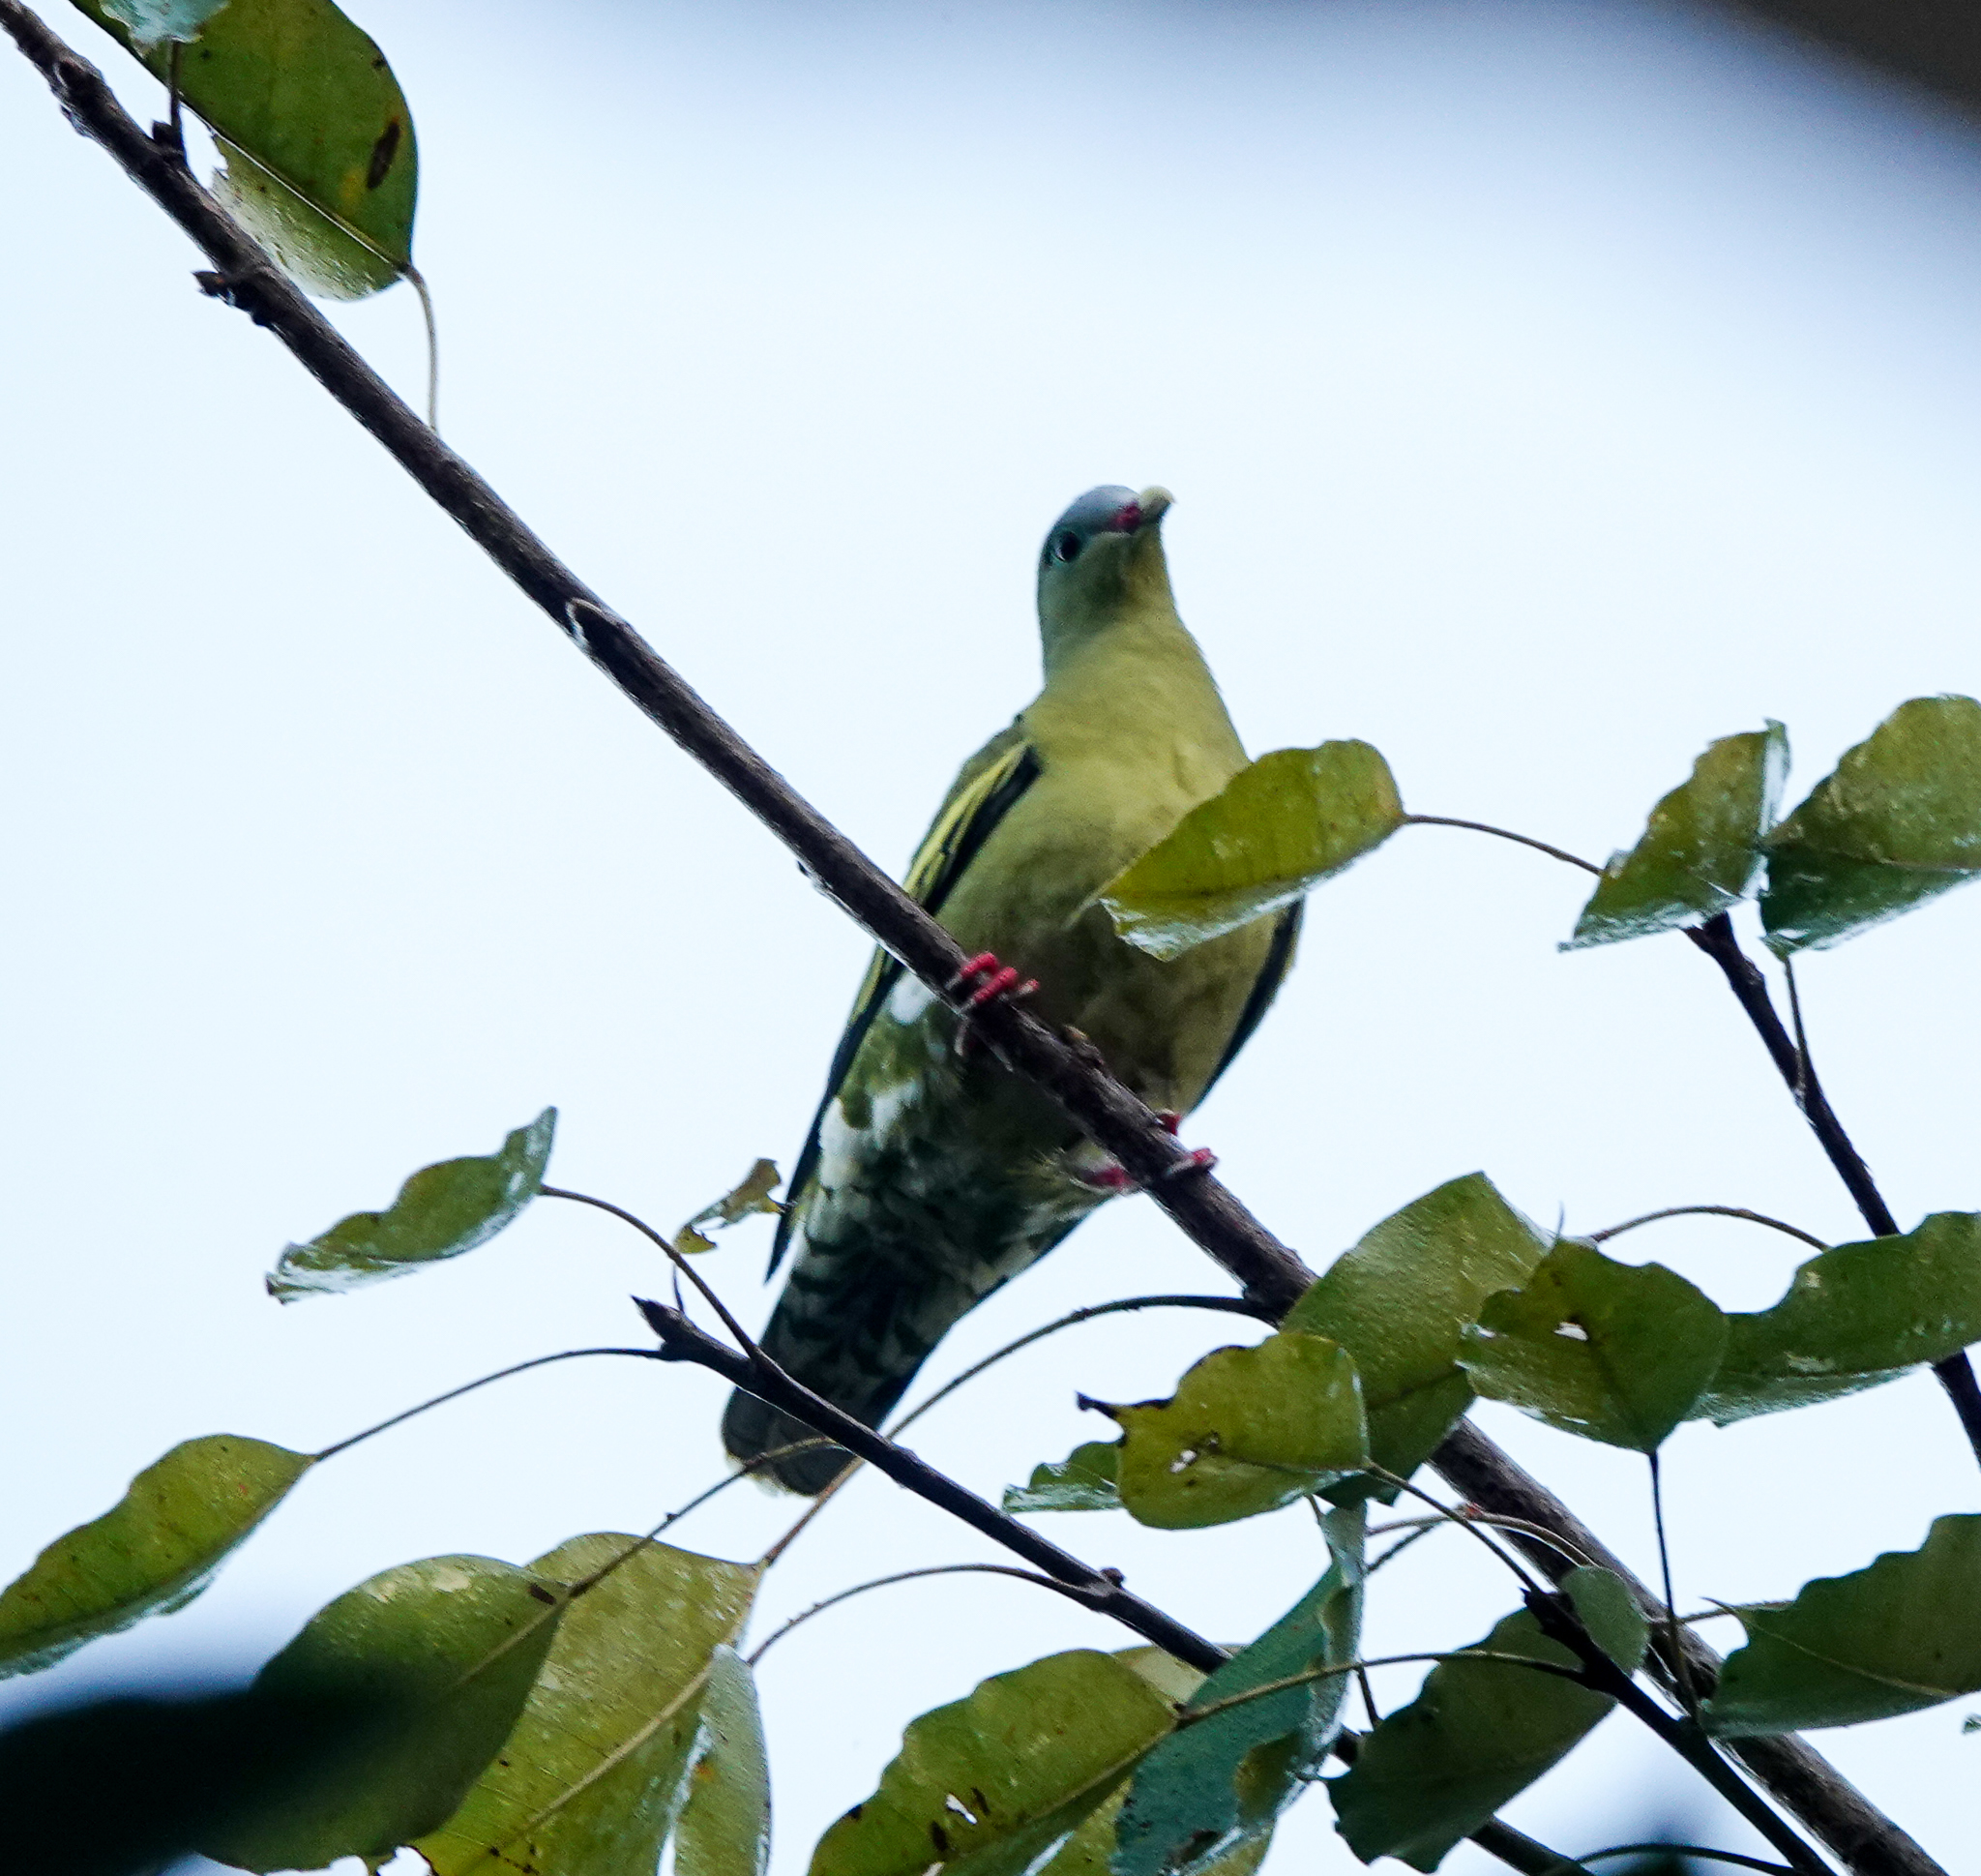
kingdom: Animalia
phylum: Chordata
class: Aves
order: Columbiformes
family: Columbidae
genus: Treron
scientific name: Treron curvirostra
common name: Thick-billed green pigeon
